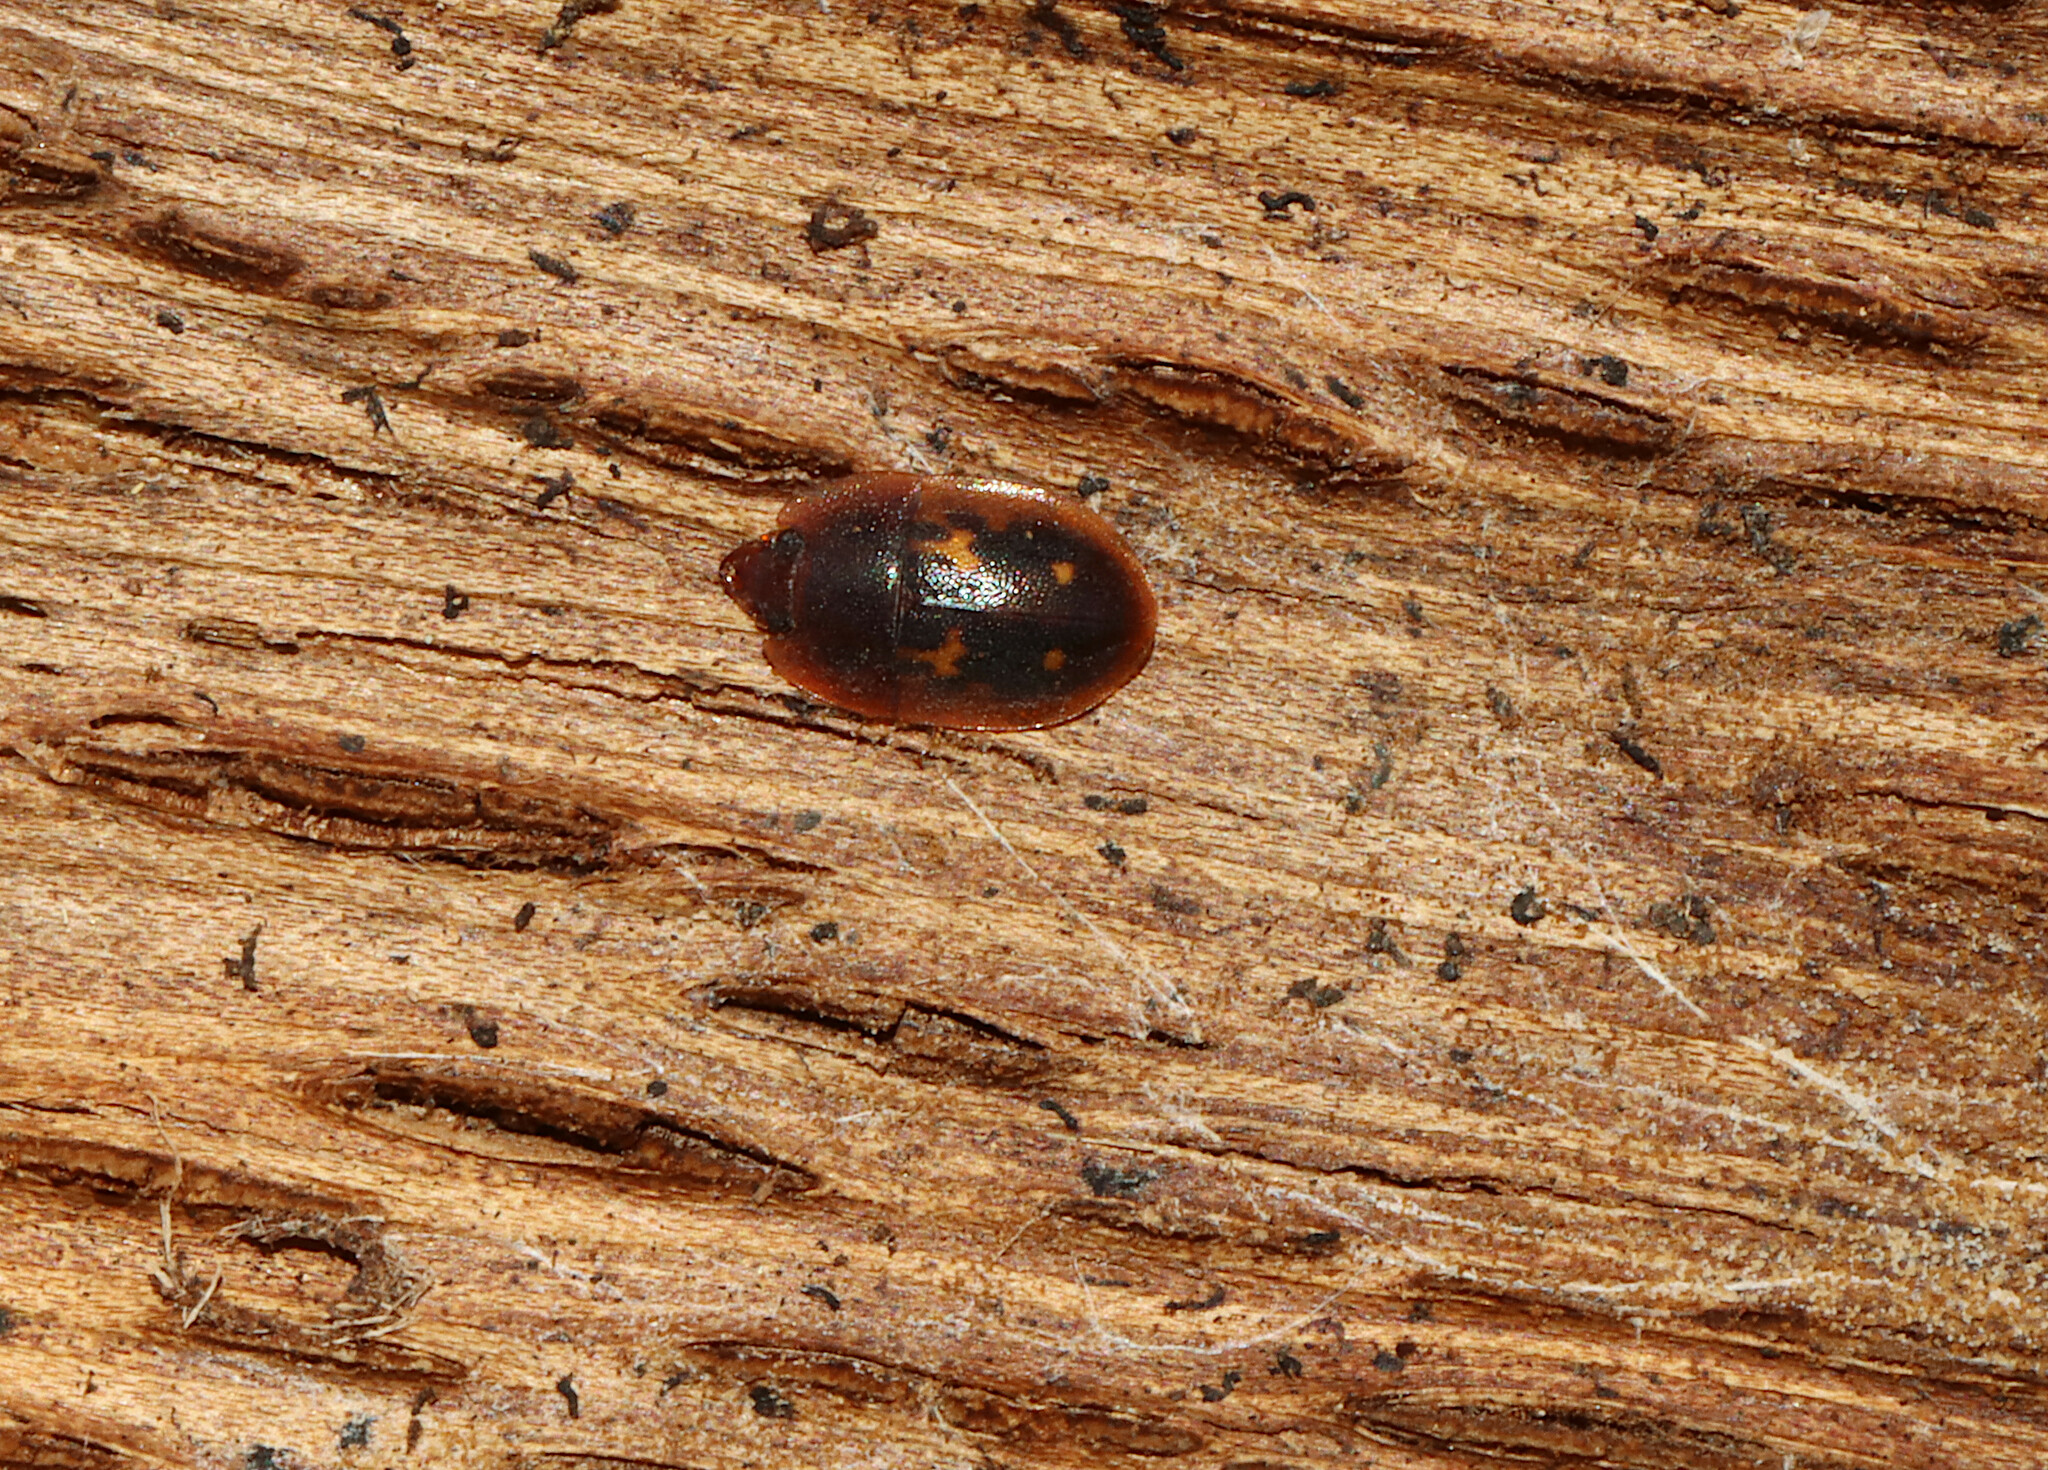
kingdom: Animalia
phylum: Arthropoda
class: Insecta
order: Coleoptera
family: Nitidulidae
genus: Prometopia
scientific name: Prometopia sexmaculata
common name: Six-spotted sap-feeding beetle
